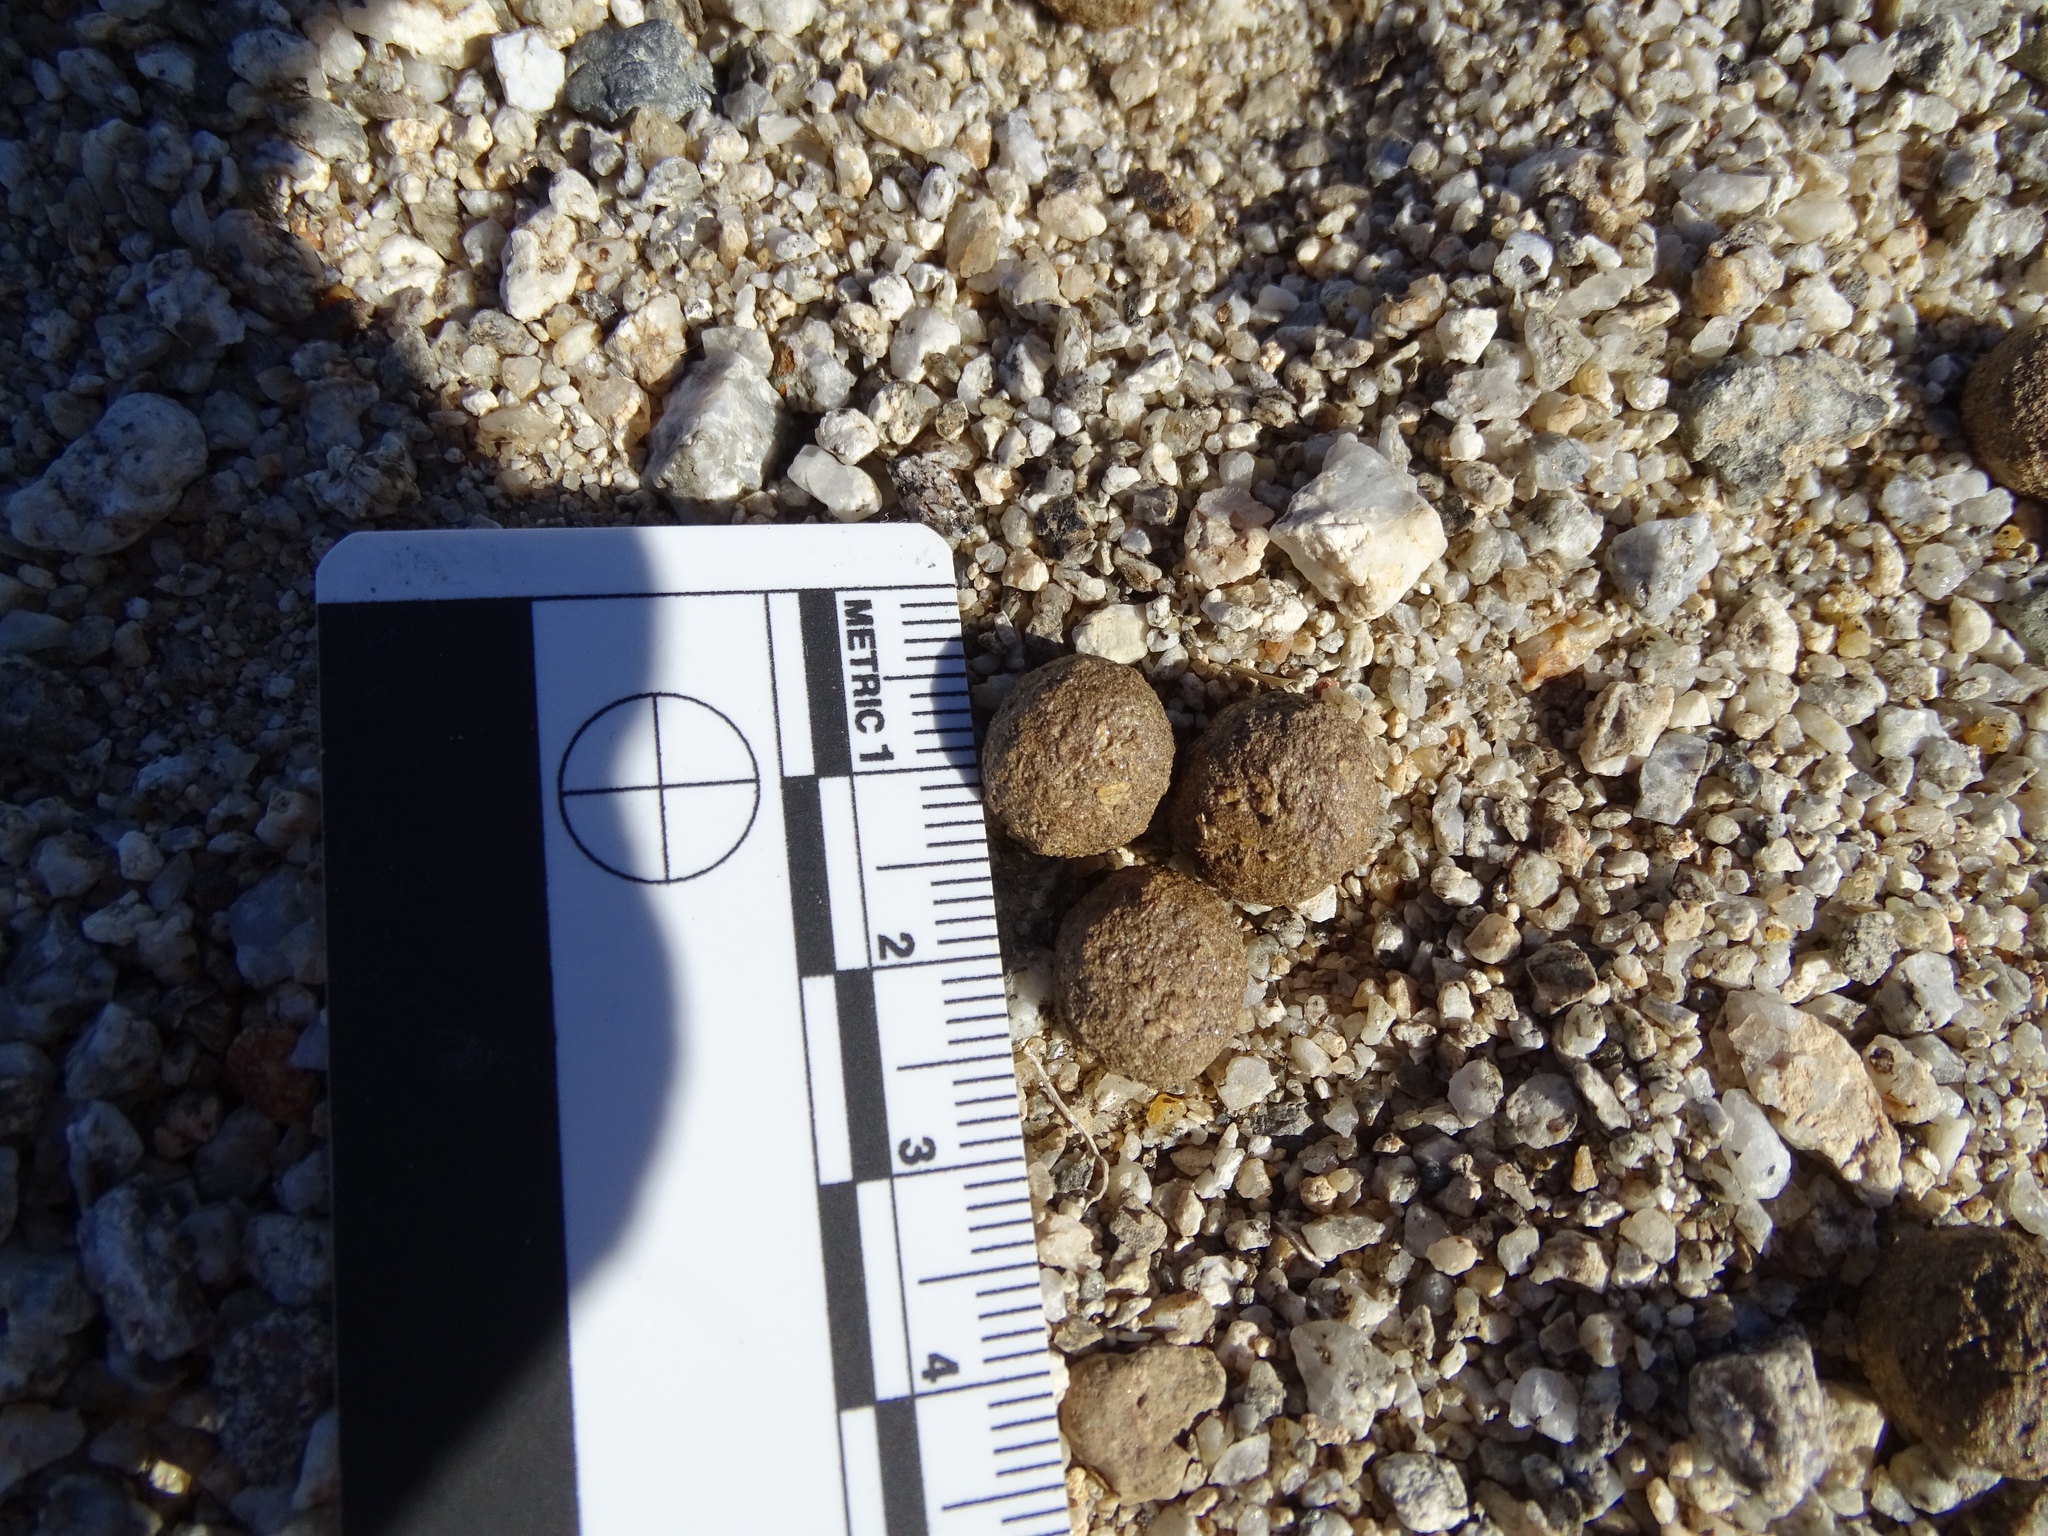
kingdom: Animalia
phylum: Chordata
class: Mammalia
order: Lagomorpha
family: Leporidae
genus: Lepus
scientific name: Lepus californicus
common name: Black-tailed jackrabbit
